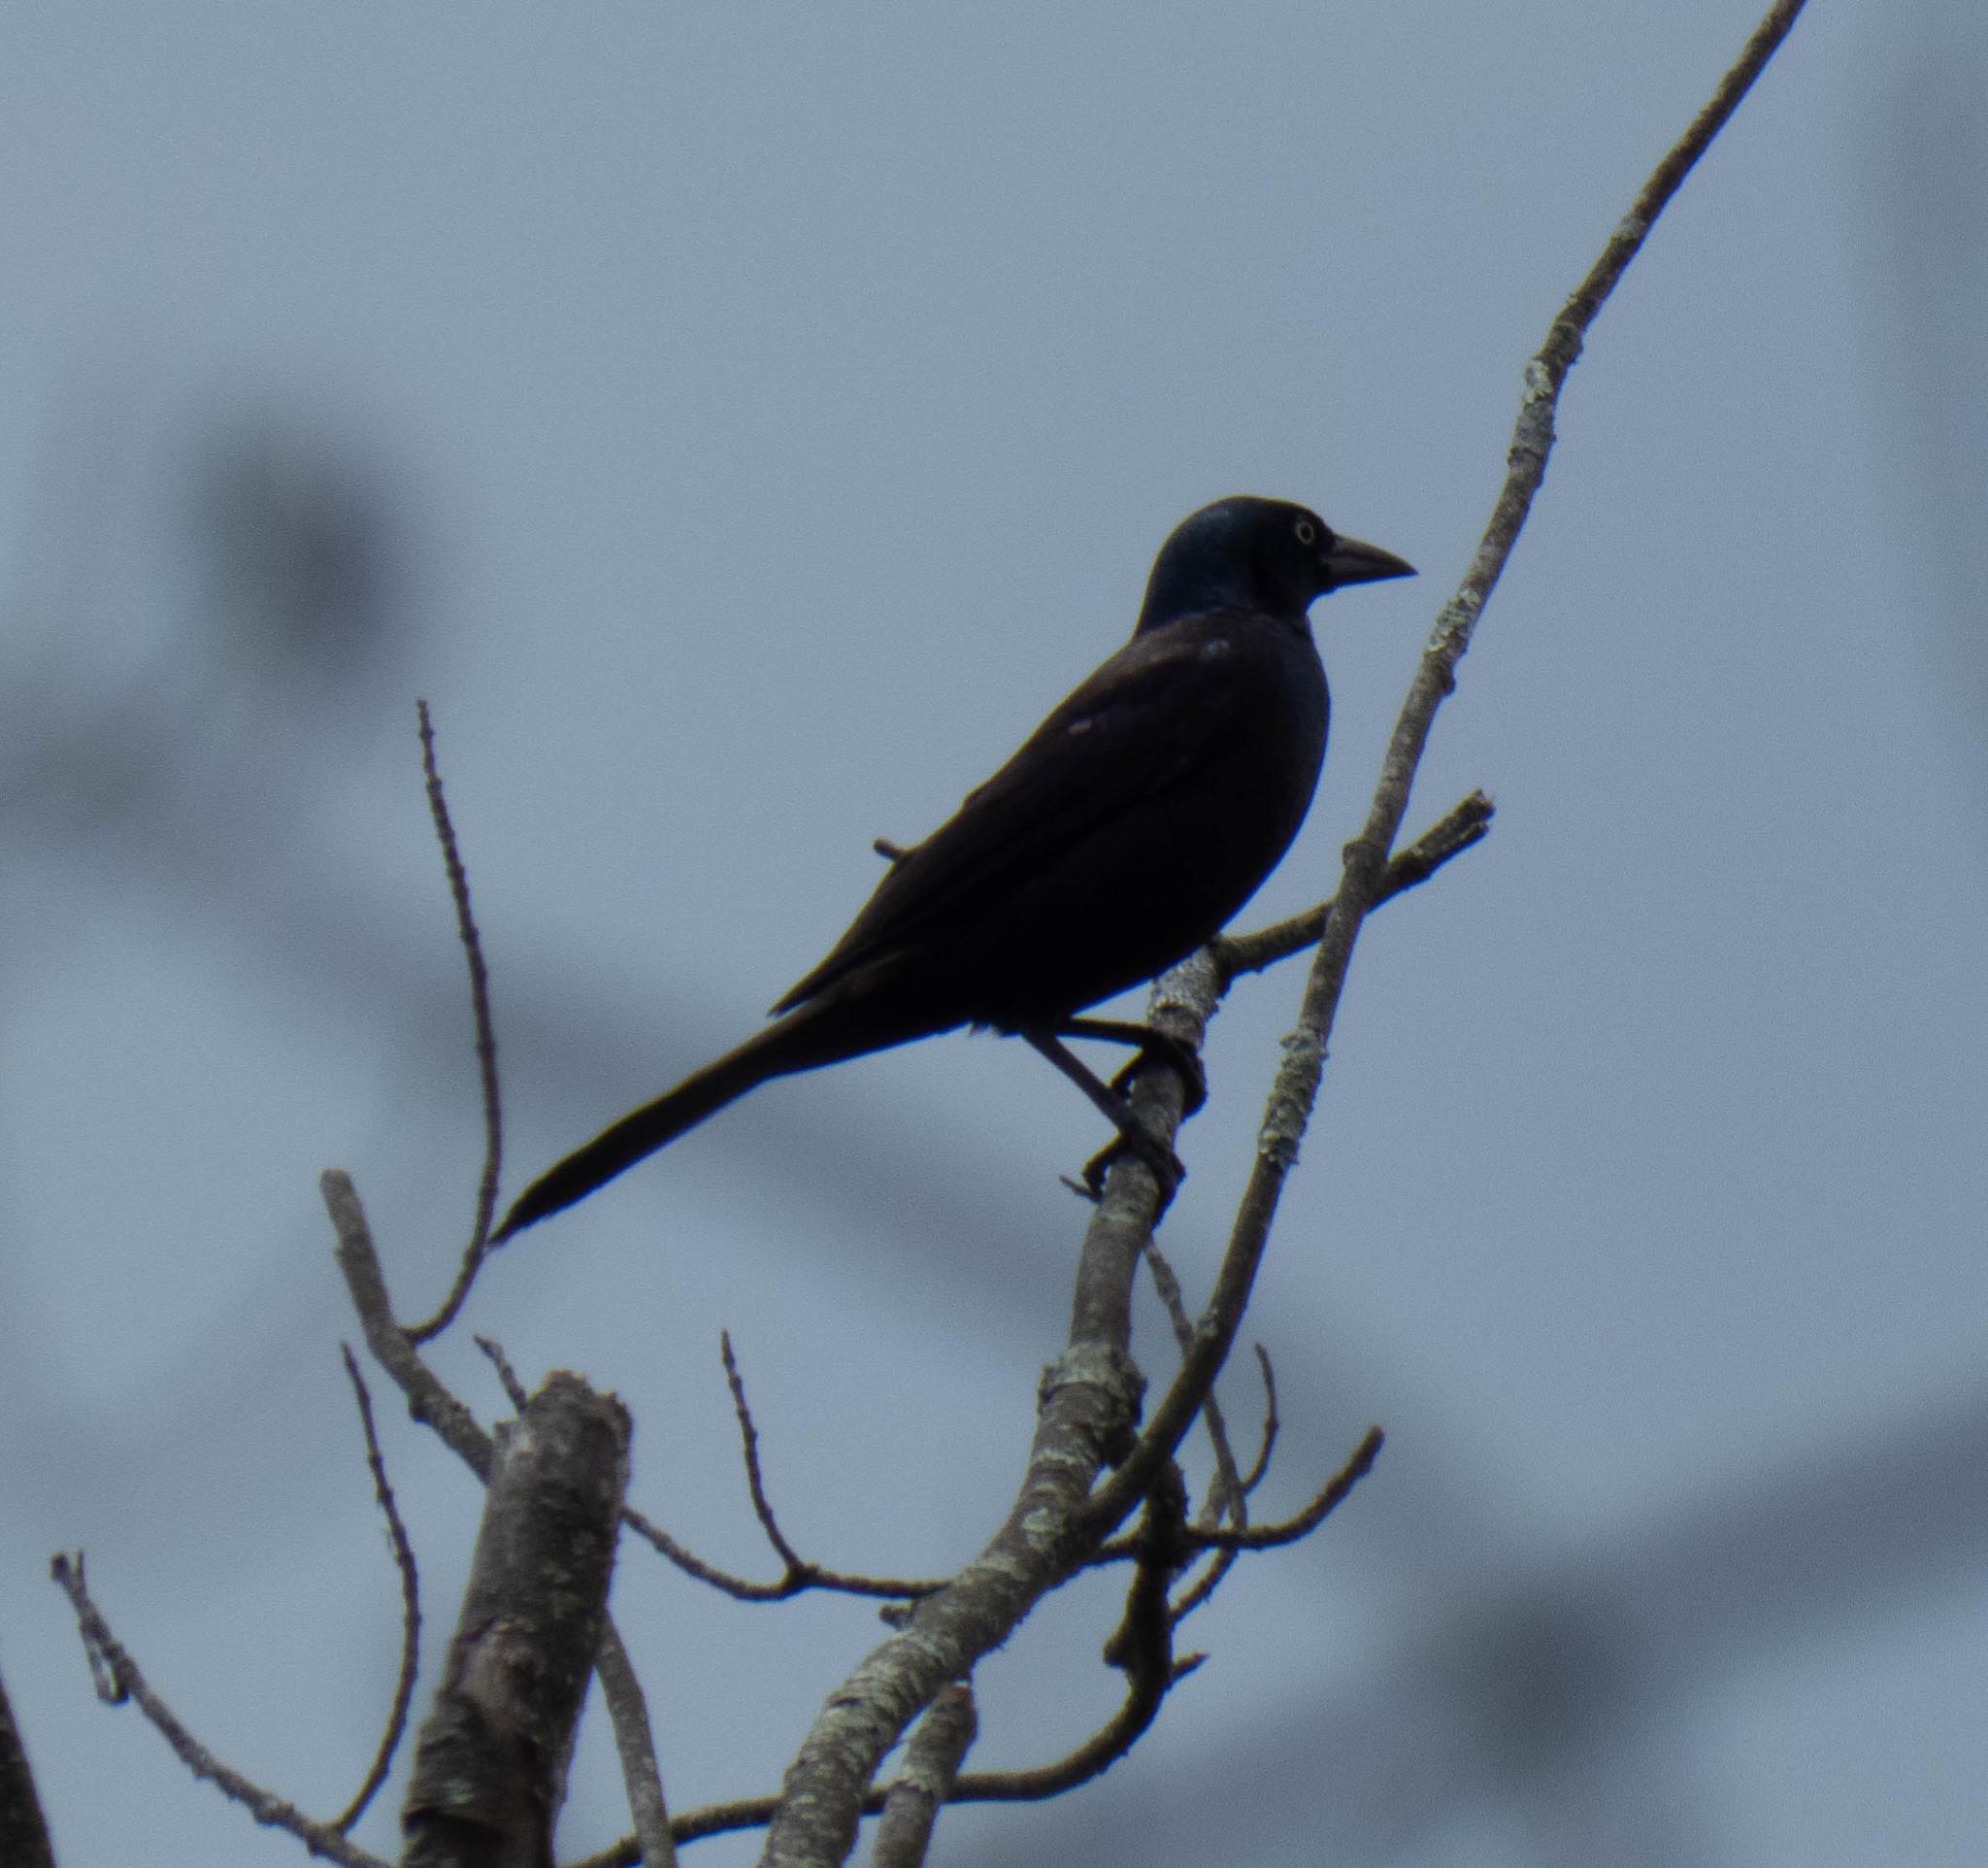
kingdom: Animalia
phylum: Chordata
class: Aves
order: Passeriformes
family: Icteridae
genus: Quiscalus
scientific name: Quiscalus quiscula
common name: Common grackle
